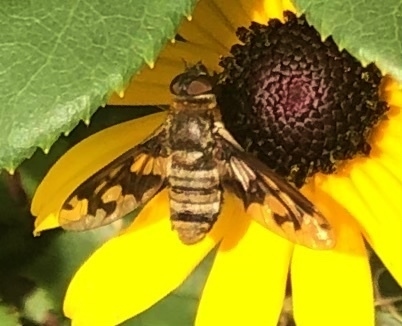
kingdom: Animalia
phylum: Arthropoda
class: Insecta
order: Diptera
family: Bombyliidae
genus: Exoprosopa
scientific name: Exoprosopa fascipennis
